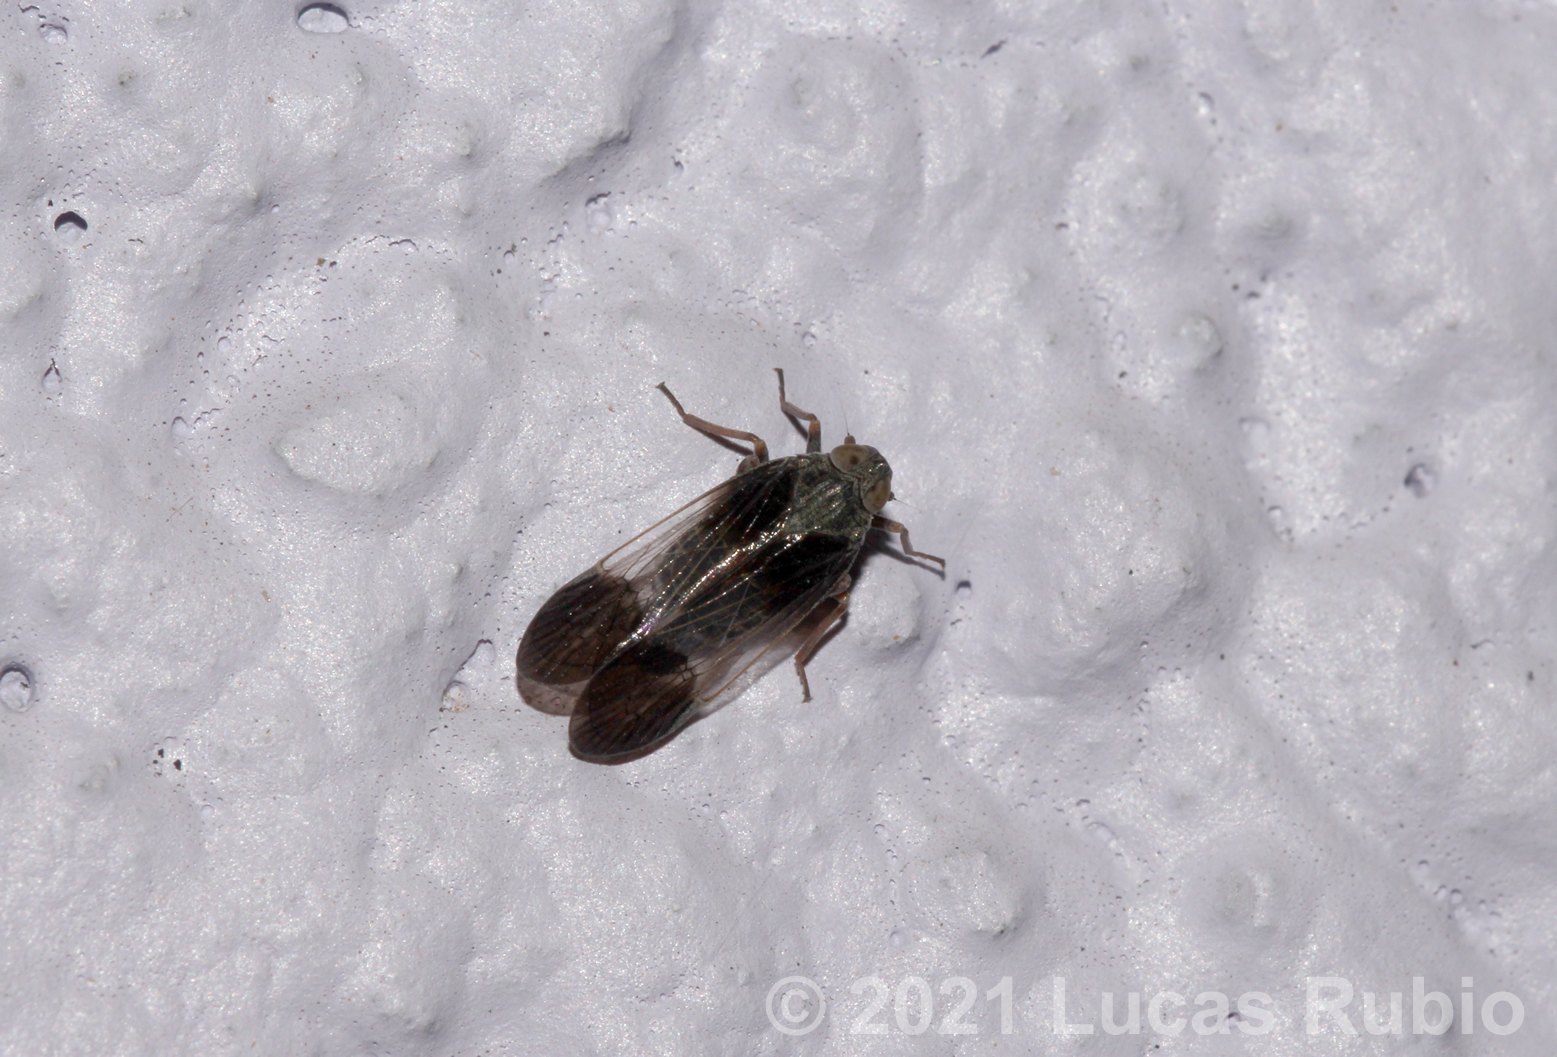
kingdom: Animalia
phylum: Arthropoda
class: Insecta
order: Hemiptera
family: Cixiidae
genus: Melanoliarus
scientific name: Melanoliarus dimidiatus
